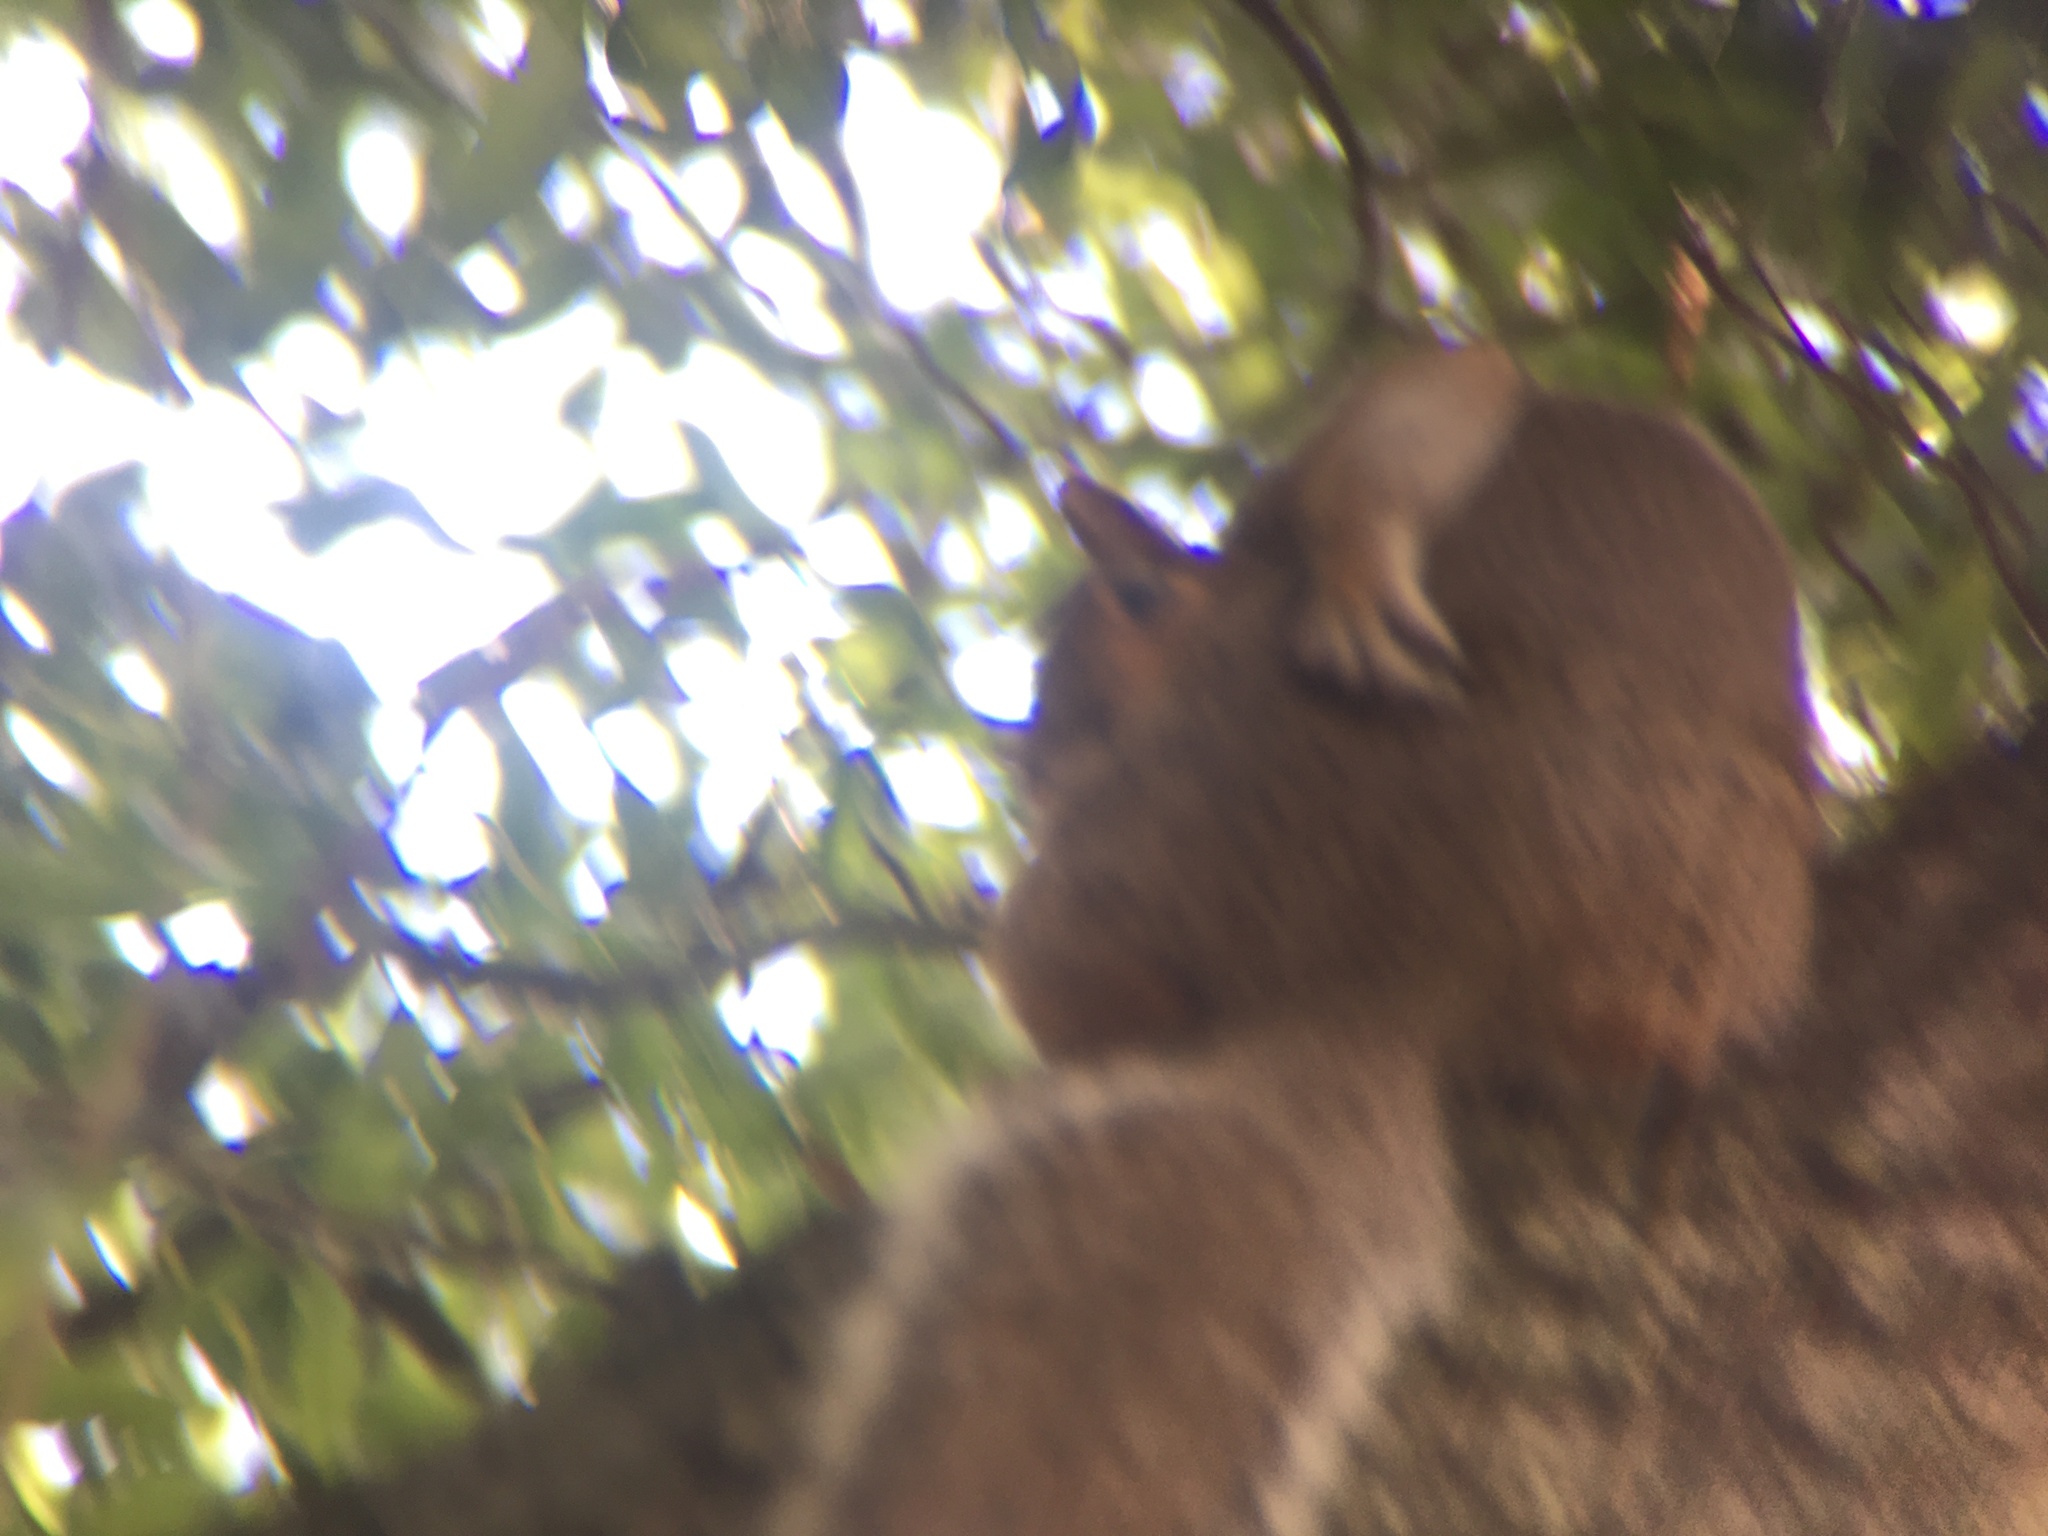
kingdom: Animalia
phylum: Chordata
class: Mammalia
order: Rodentia
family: Sciuridae
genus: Sciurus
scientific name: Sciurus carolinensis
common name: Eastern gray squirrel
